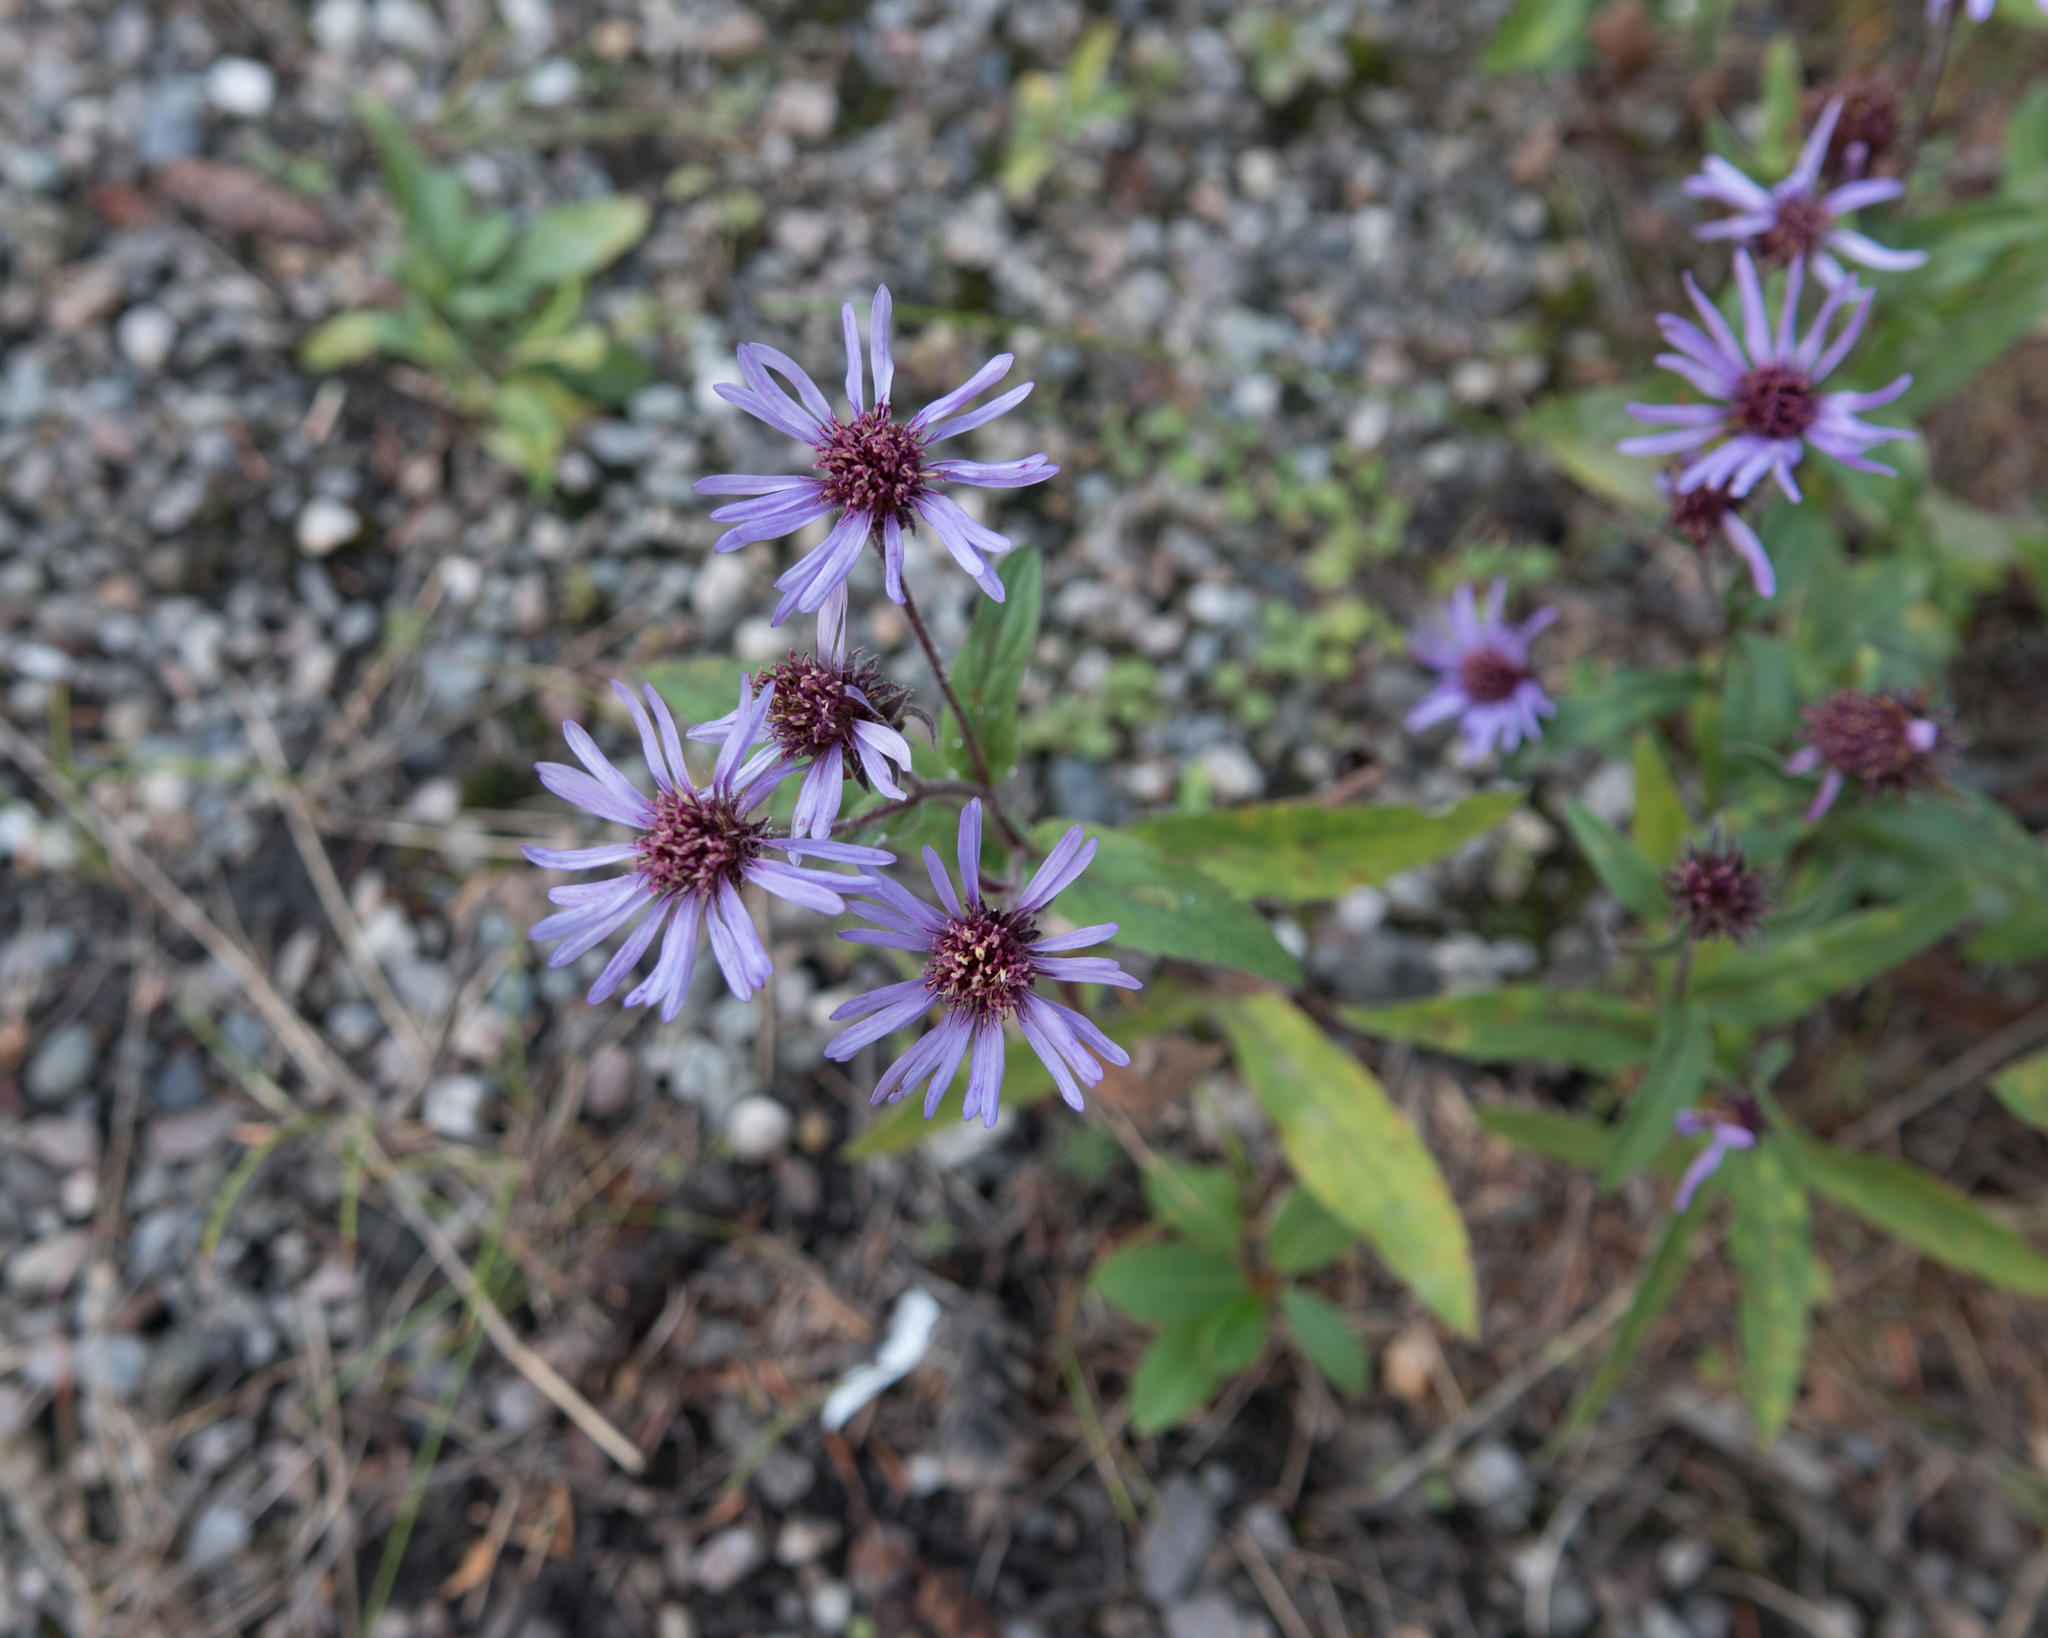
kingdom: Plantae
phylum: Tracheophyta
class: Magnoliopsida
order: Asterales
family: Asteraceae
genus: Eurybia
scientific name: Eurybia sibirica
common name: Arctic aster
